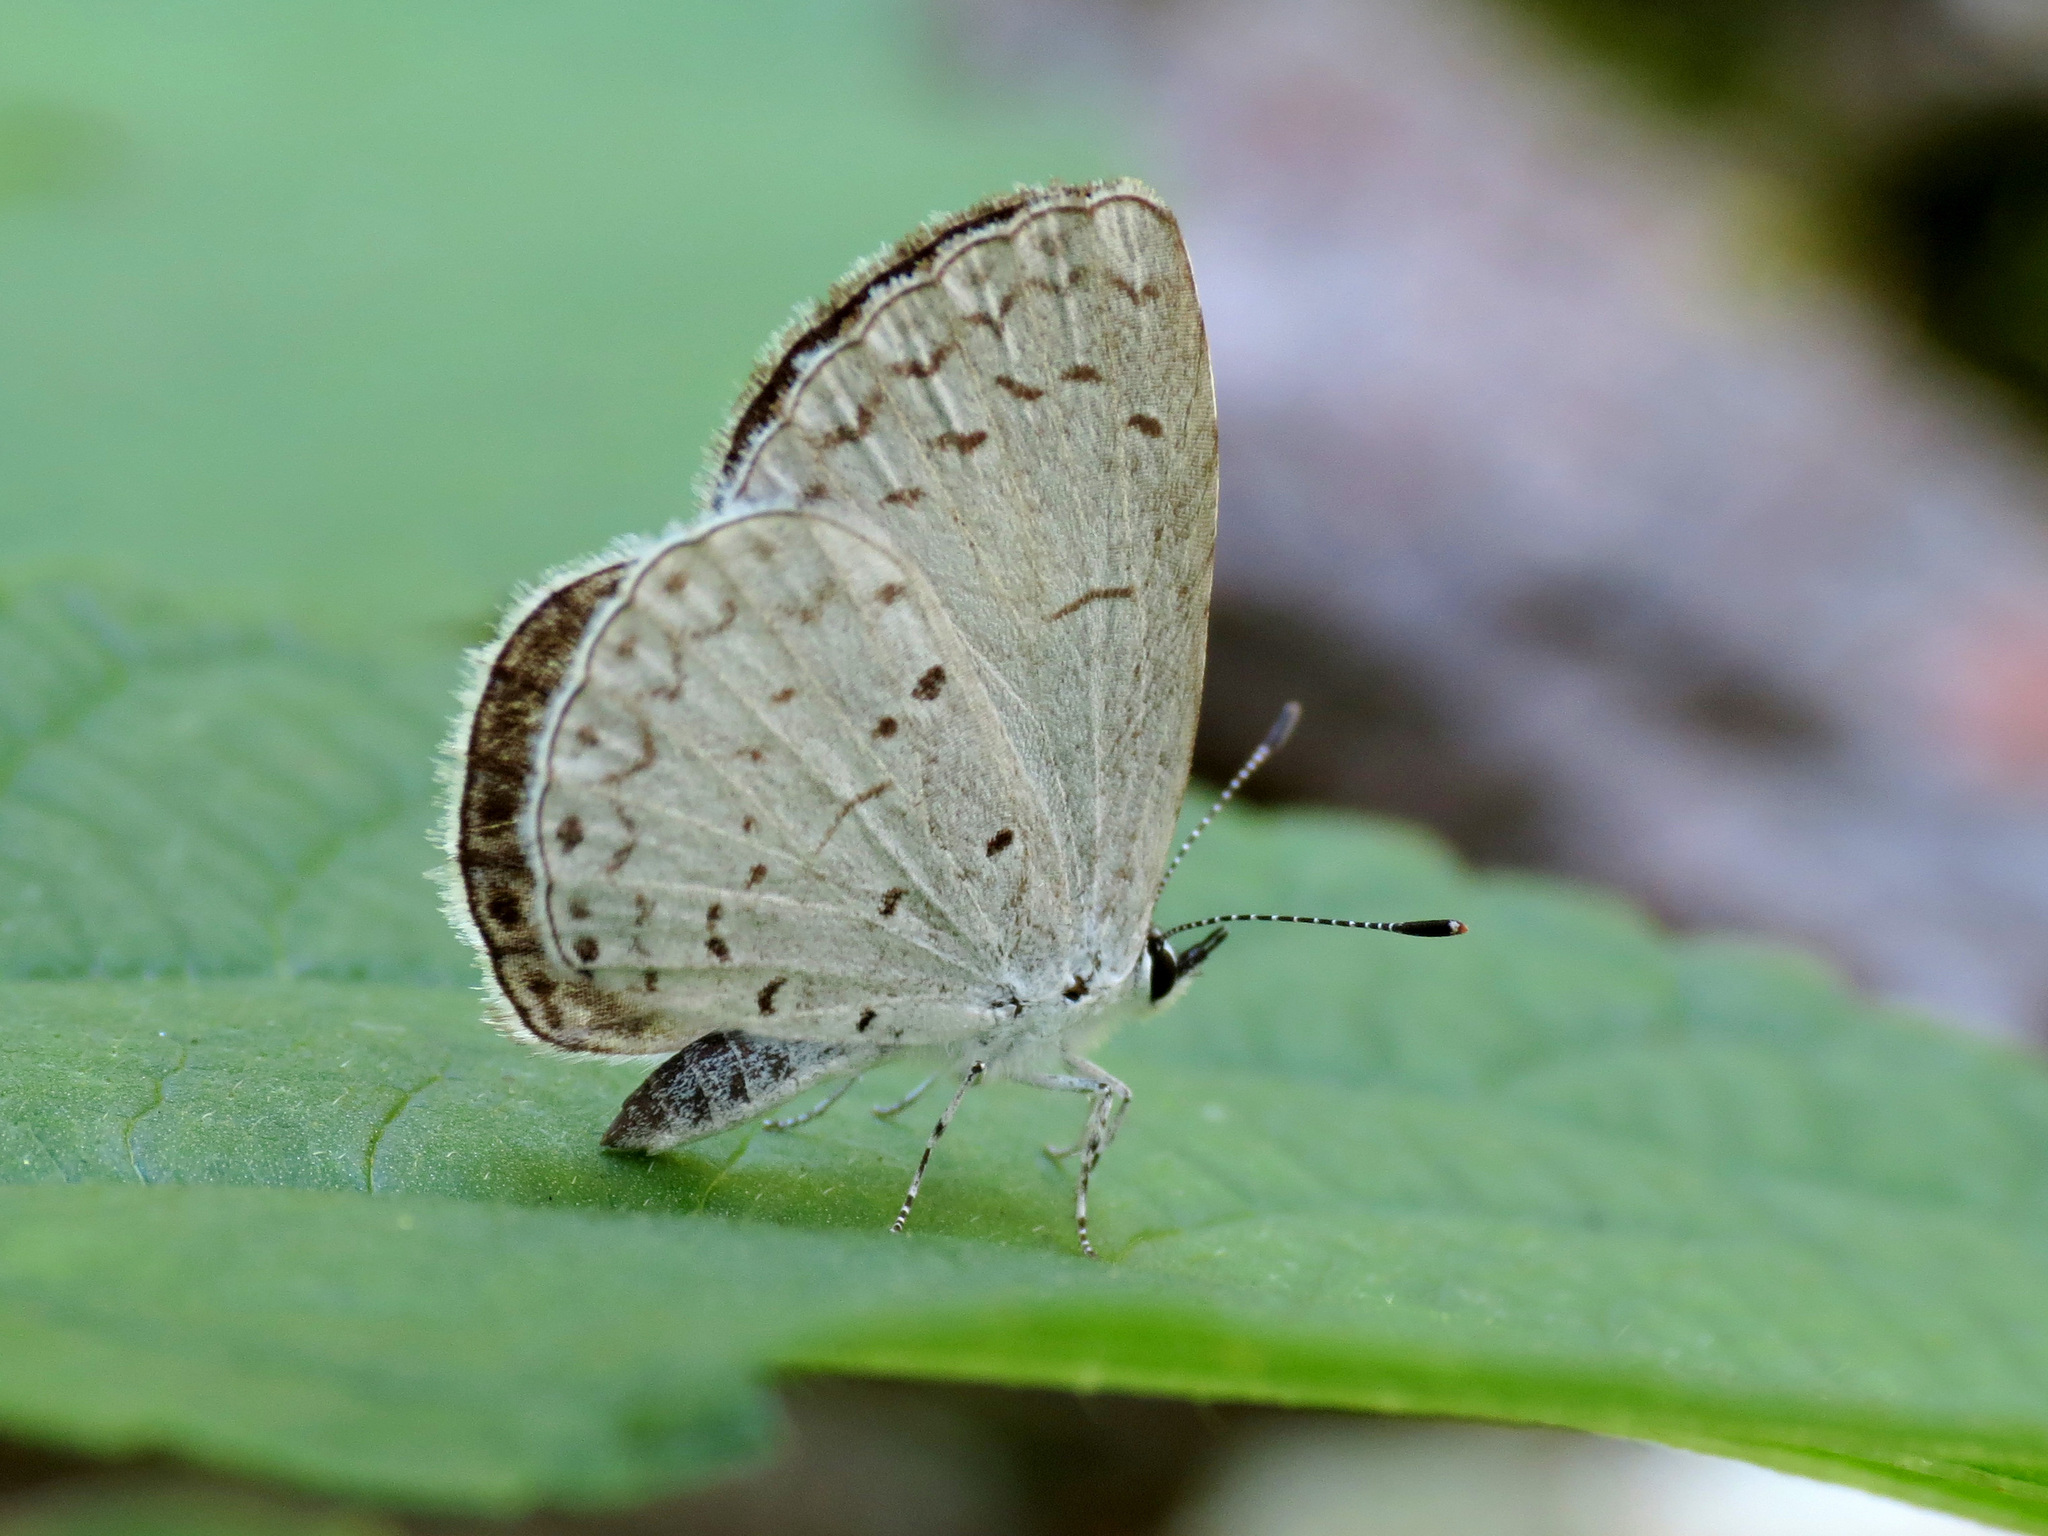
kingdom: Animalia
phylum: Arthropoda
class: Insecta
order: Lepidoptera
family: Lycaenidae
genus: Cyaniris
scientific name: Cyaniris neglecta
